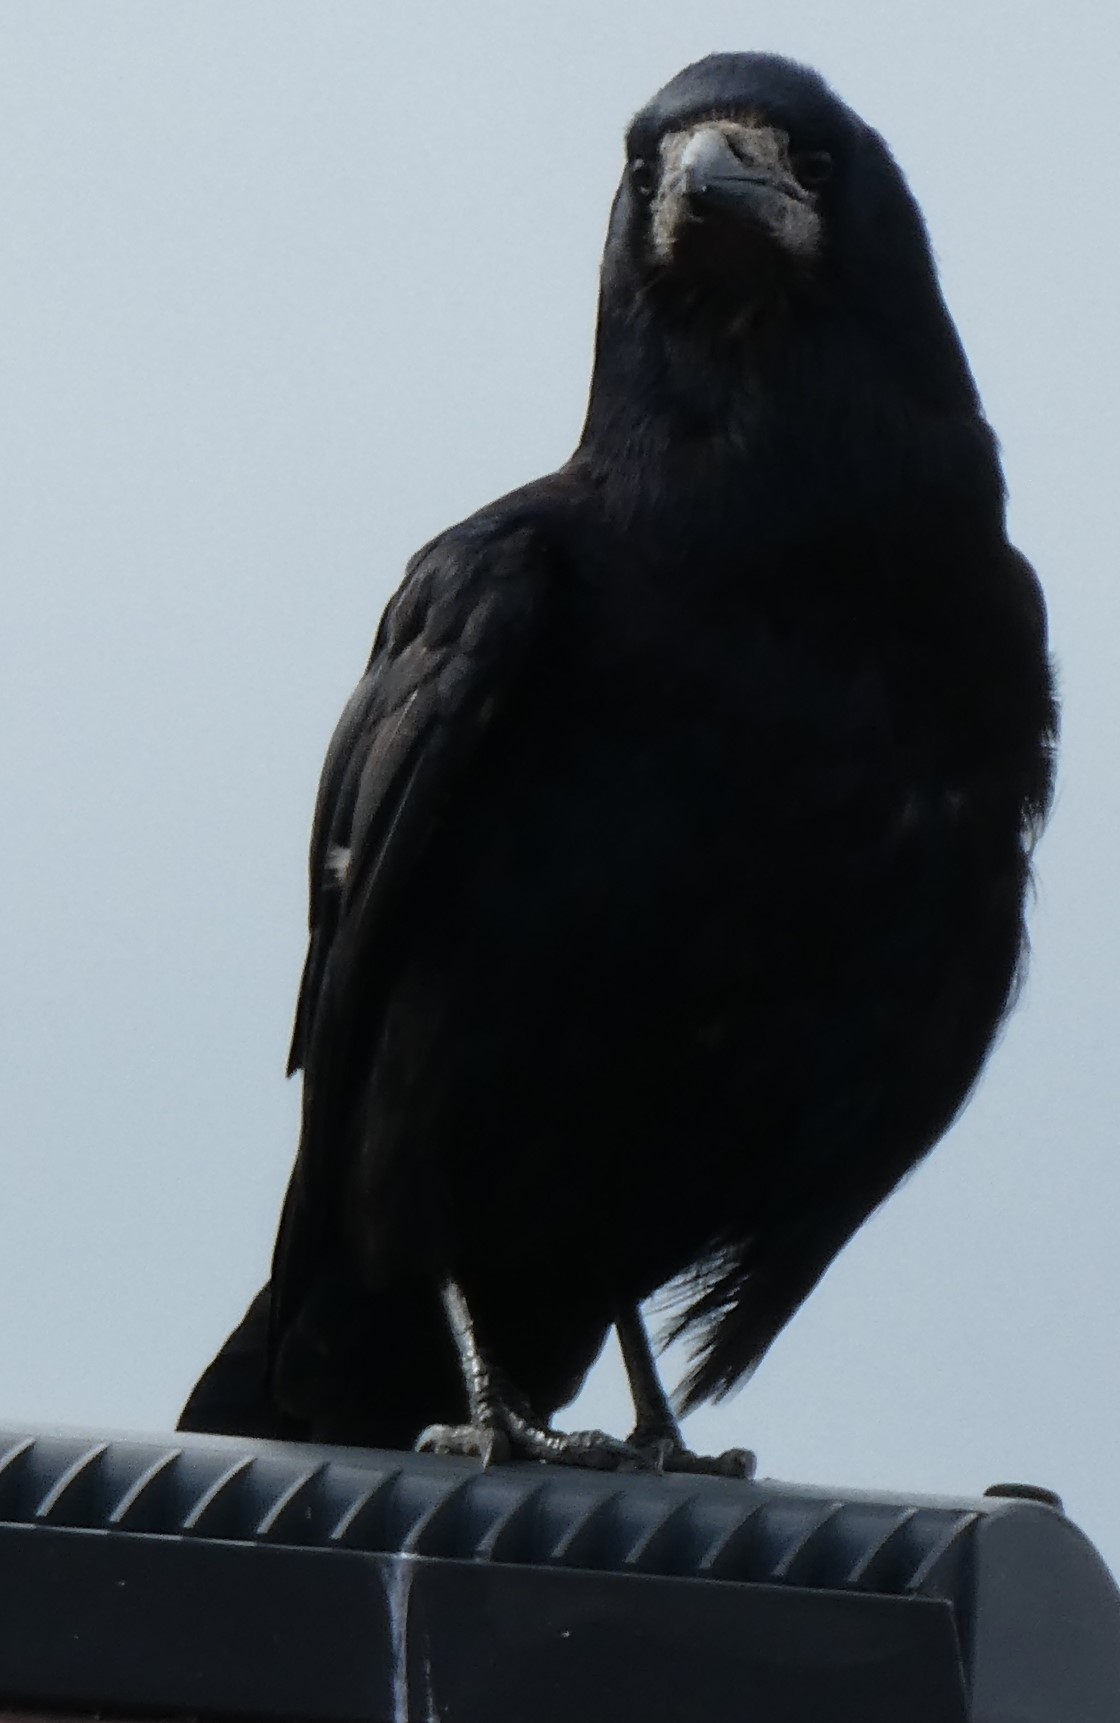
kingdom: Animalia
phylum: Chordata
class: Aves
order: Passeriformes
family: Corvidae
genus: Corvus
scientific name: Corvus frugilegus
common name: Rook
